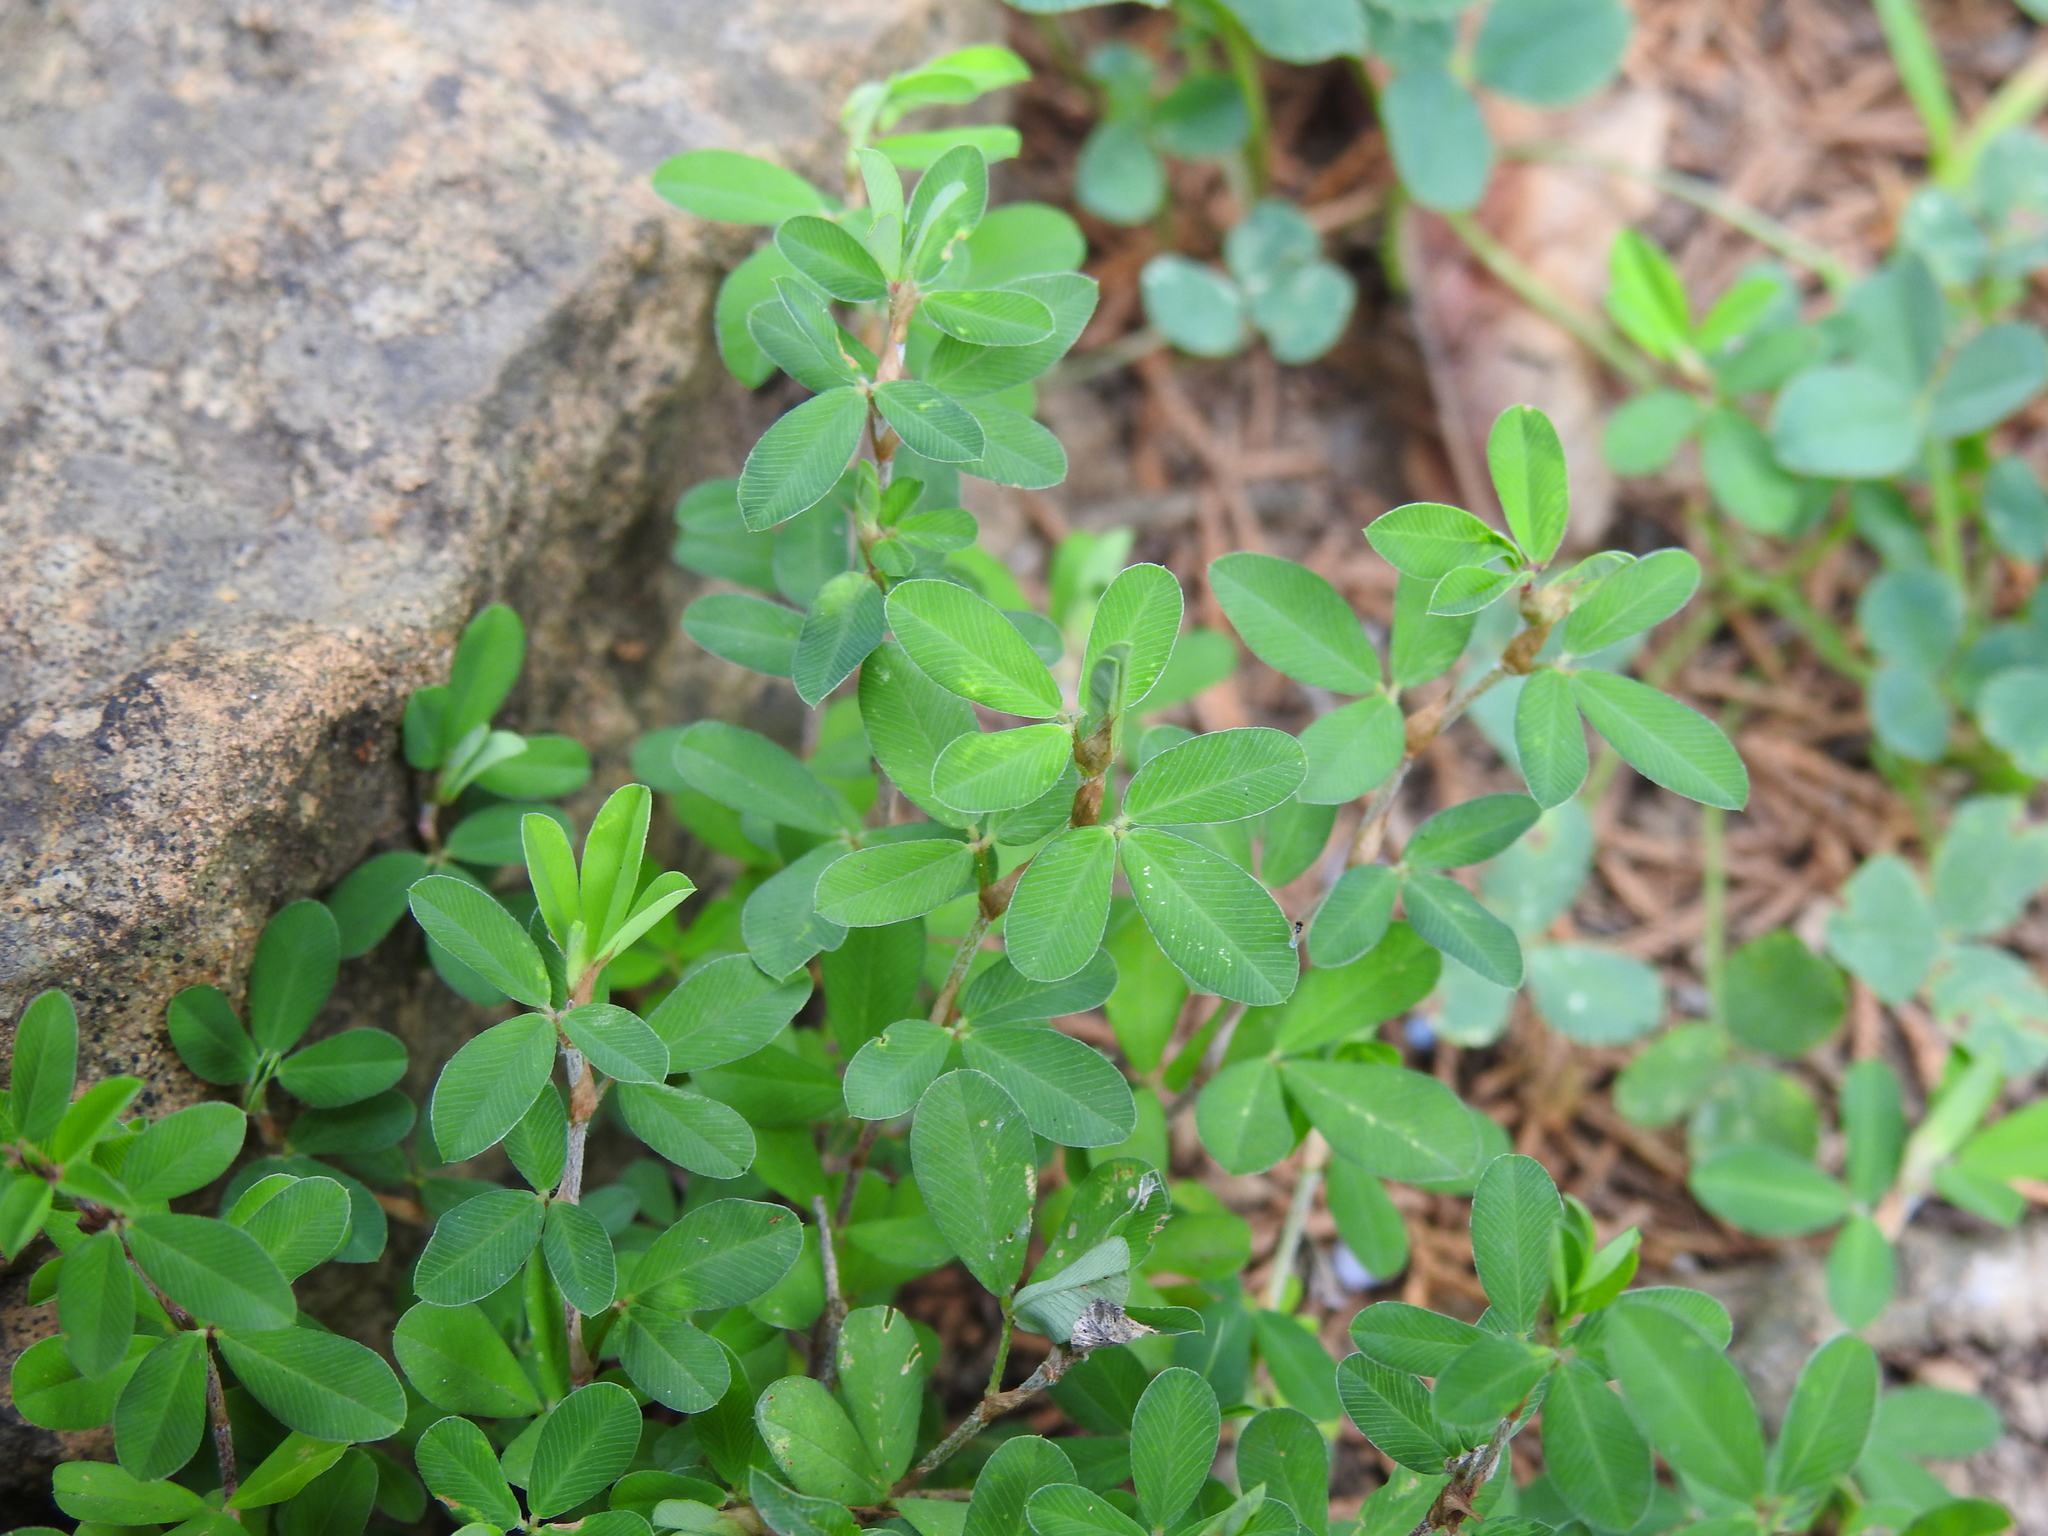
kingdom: Plantae
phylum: Tracheophyta
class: Magnoliopsida
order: Fabales
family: Fabaceae
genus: Kummerowia
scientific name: Kummerowia striata
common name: Japanese clover
